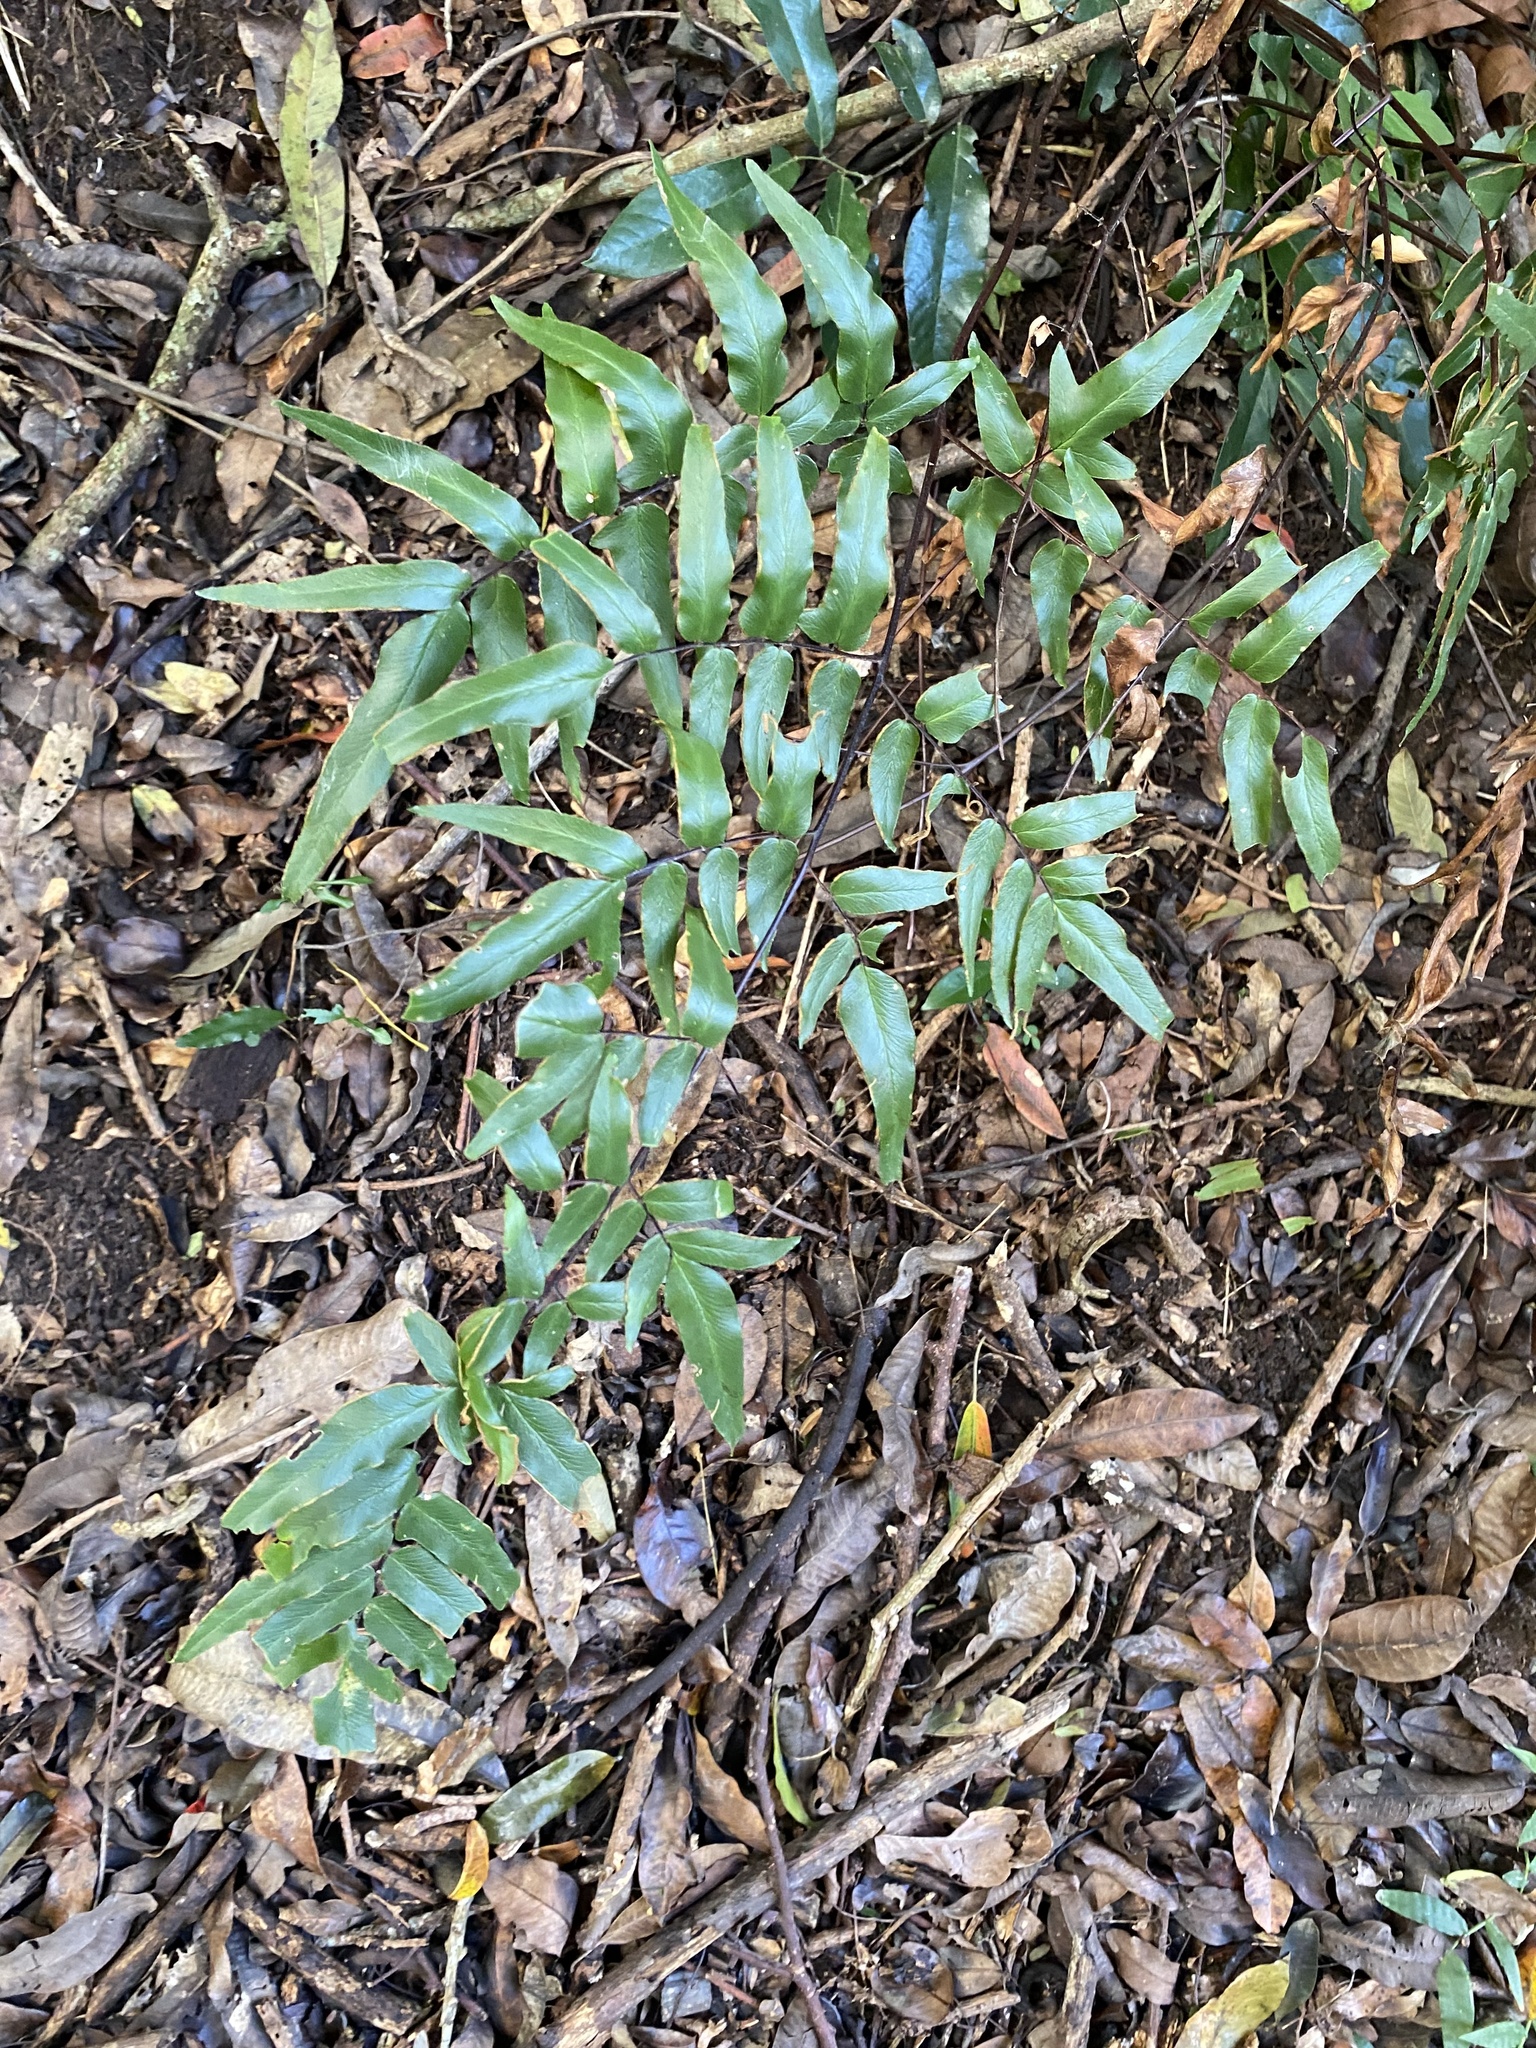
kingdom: Plantae
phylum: Tracheophyta
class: Polypodiopsida
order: Polypodiales
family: Pteridaceae
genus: Cheilanthes
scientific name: Cheilanthes viridis
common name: Green cliffbrake
